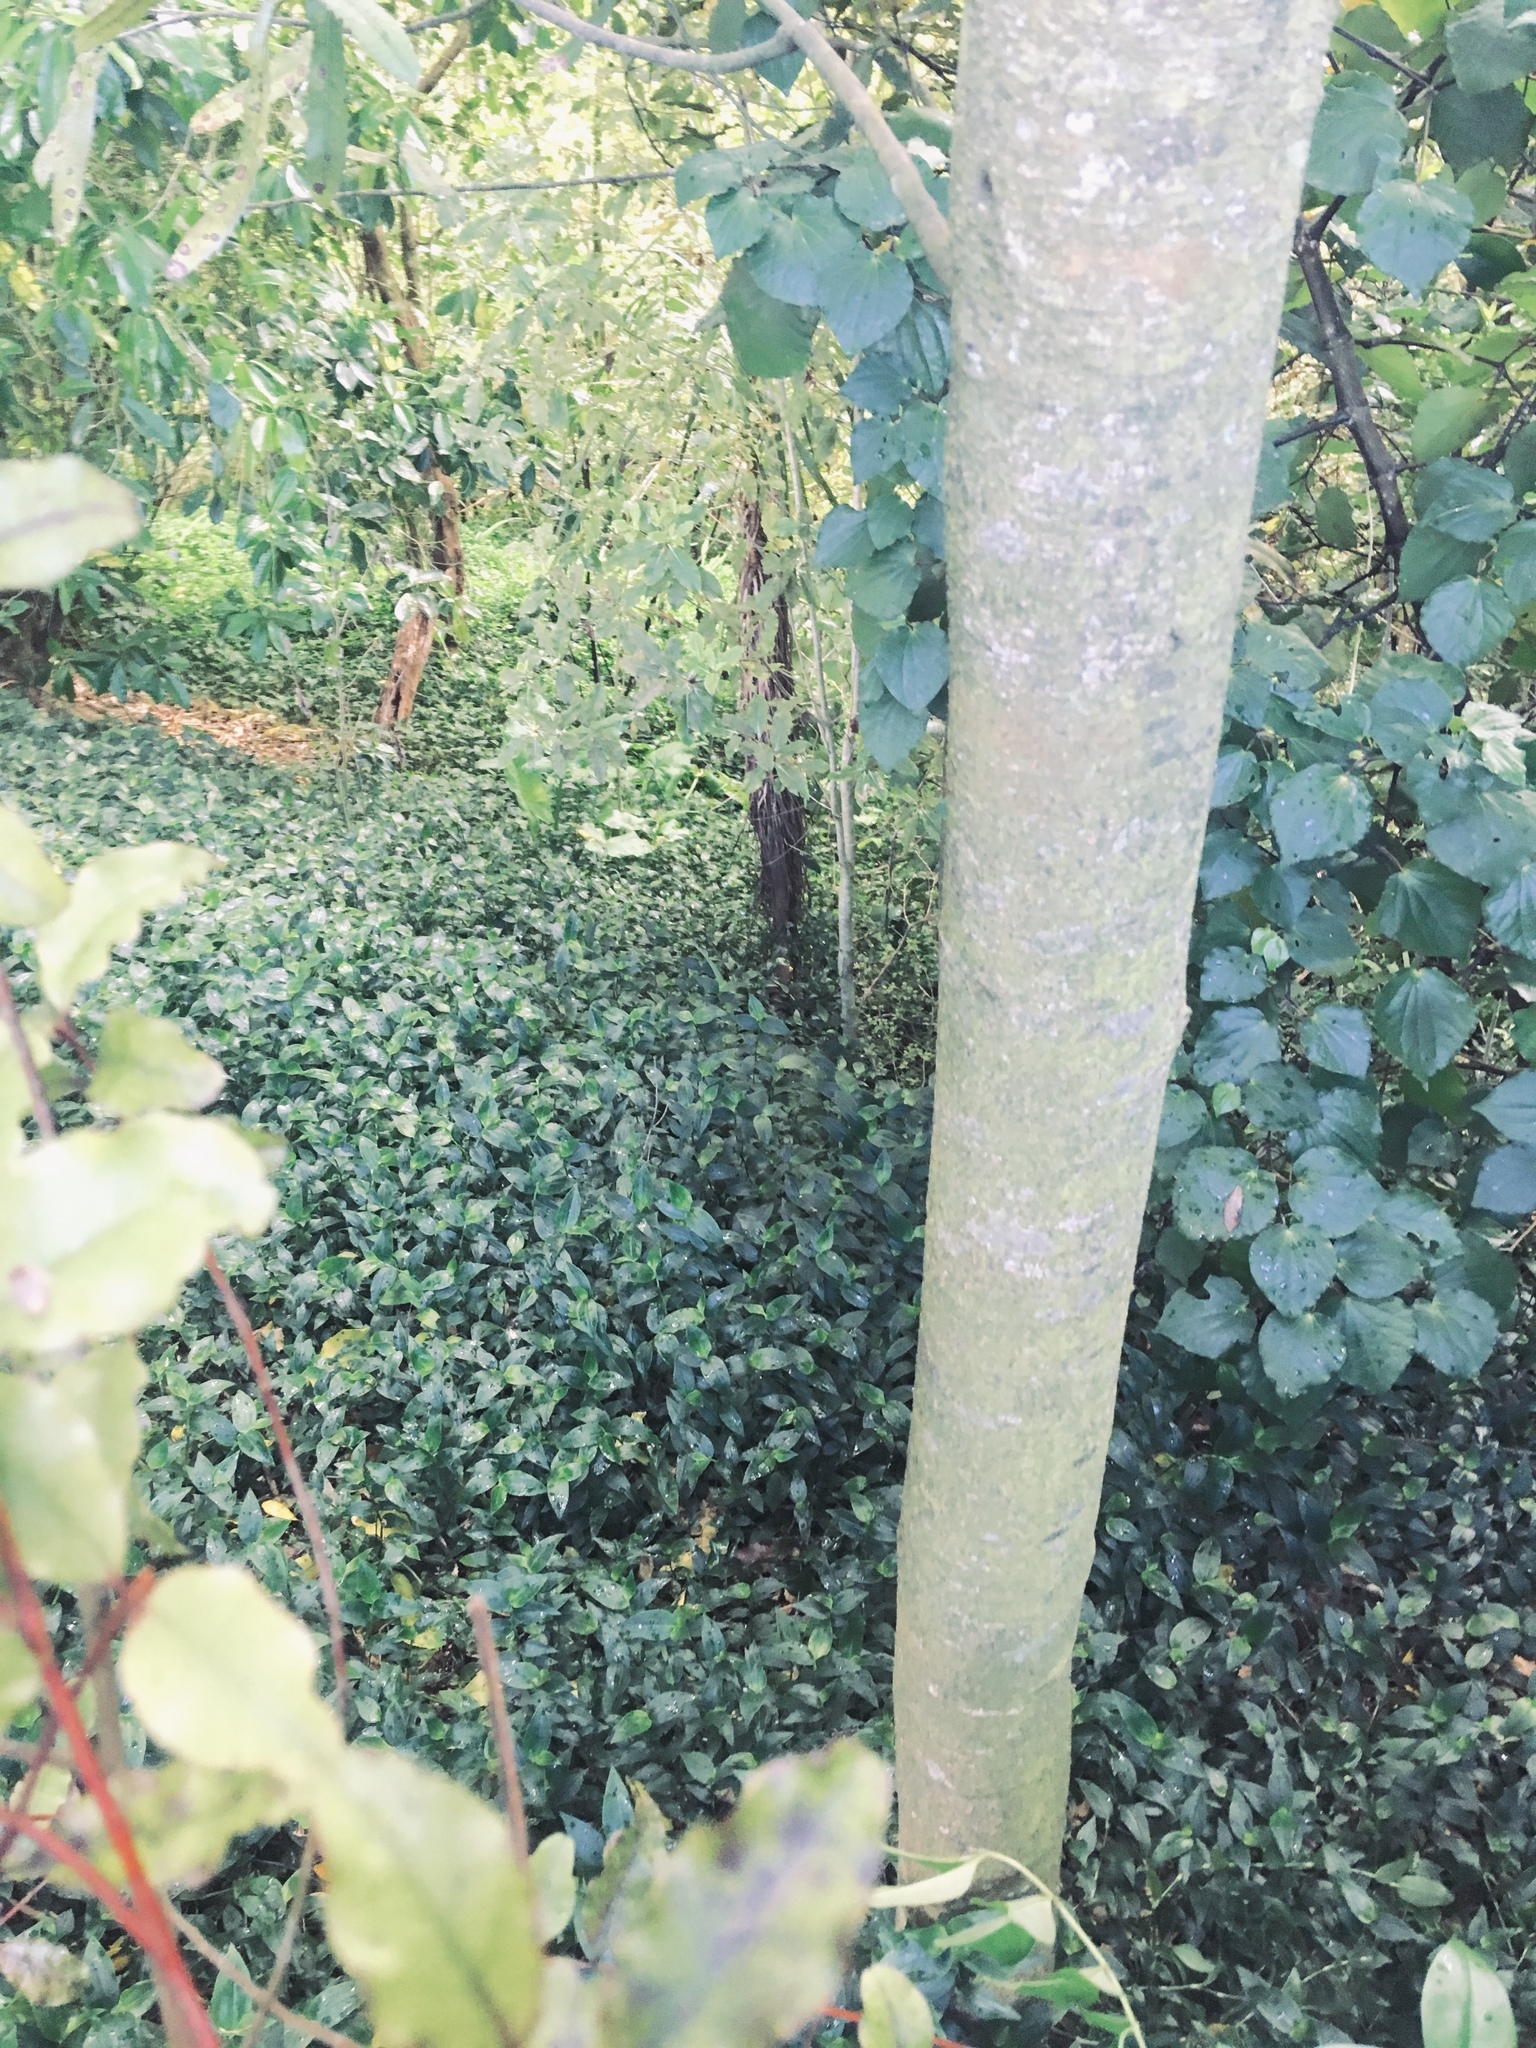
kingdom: Plantae
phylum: Tracheophyta
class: Magnoliopsida
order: Piperales
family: Piperaceae
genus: Macropiper
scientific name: Macropiper excelsum
